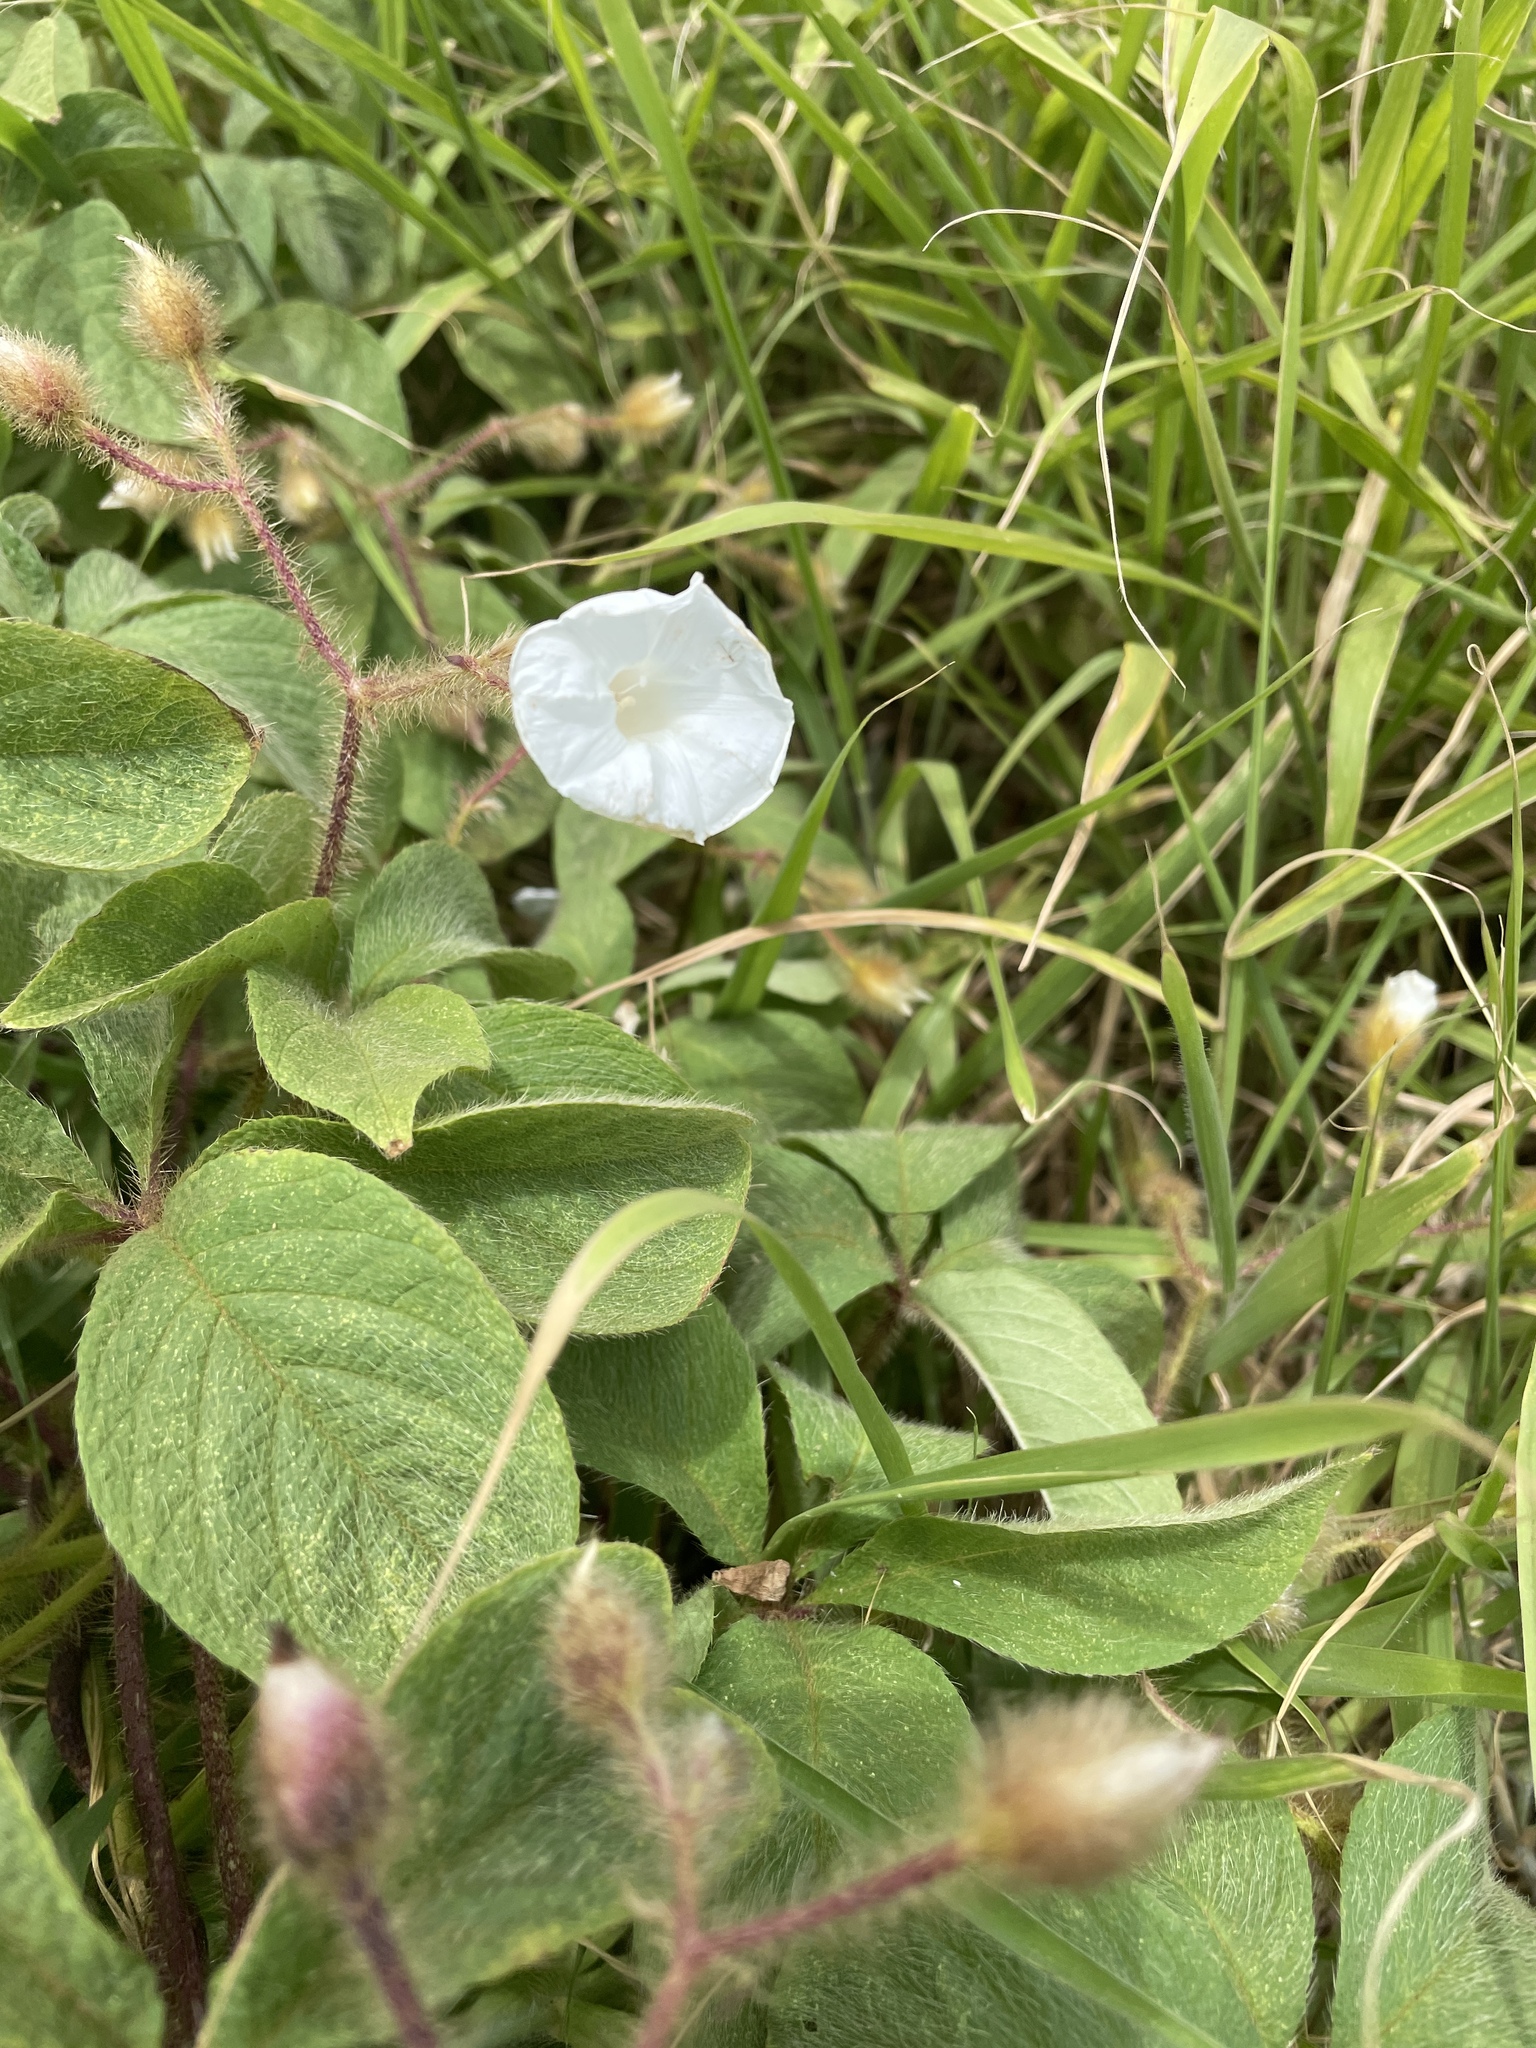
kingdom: Plantae
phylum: Tracheophyta
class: Magnoliopsida
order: Solanales
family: Convolvulaceae
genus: Distimake
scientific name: Distimake aegyptius
